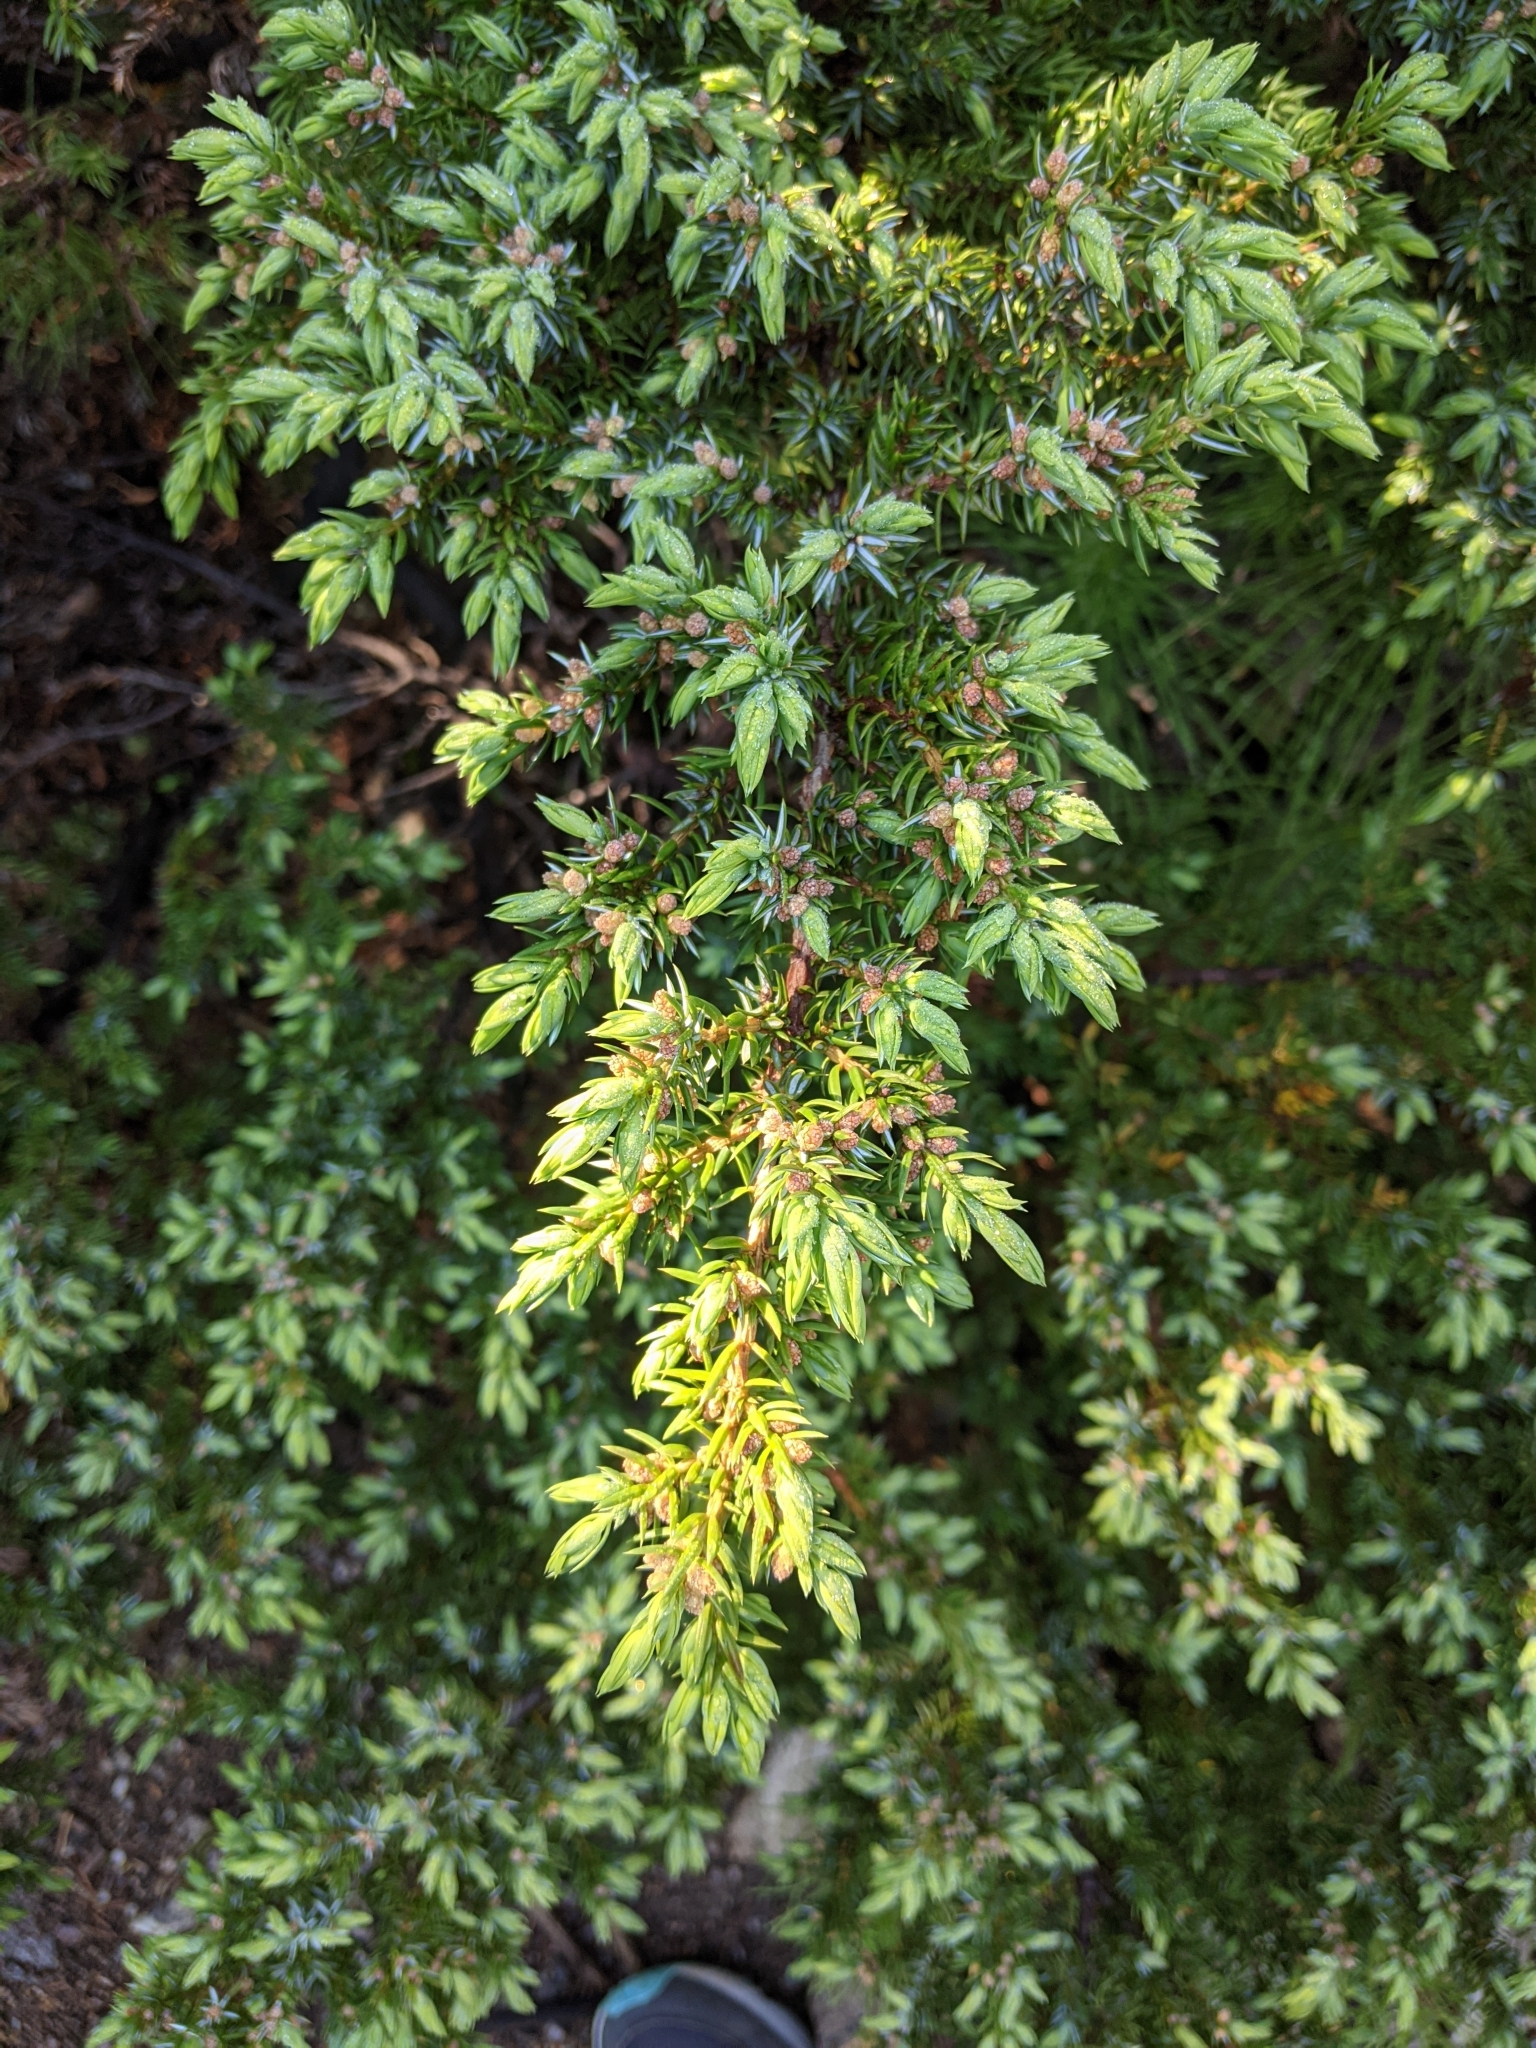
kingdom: Plantae
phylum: Tracheophyta
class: Pinopsida
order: Pinales
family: Cupressaceae
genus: Juniperus
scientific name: Juniperus communis
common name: Common juniper
